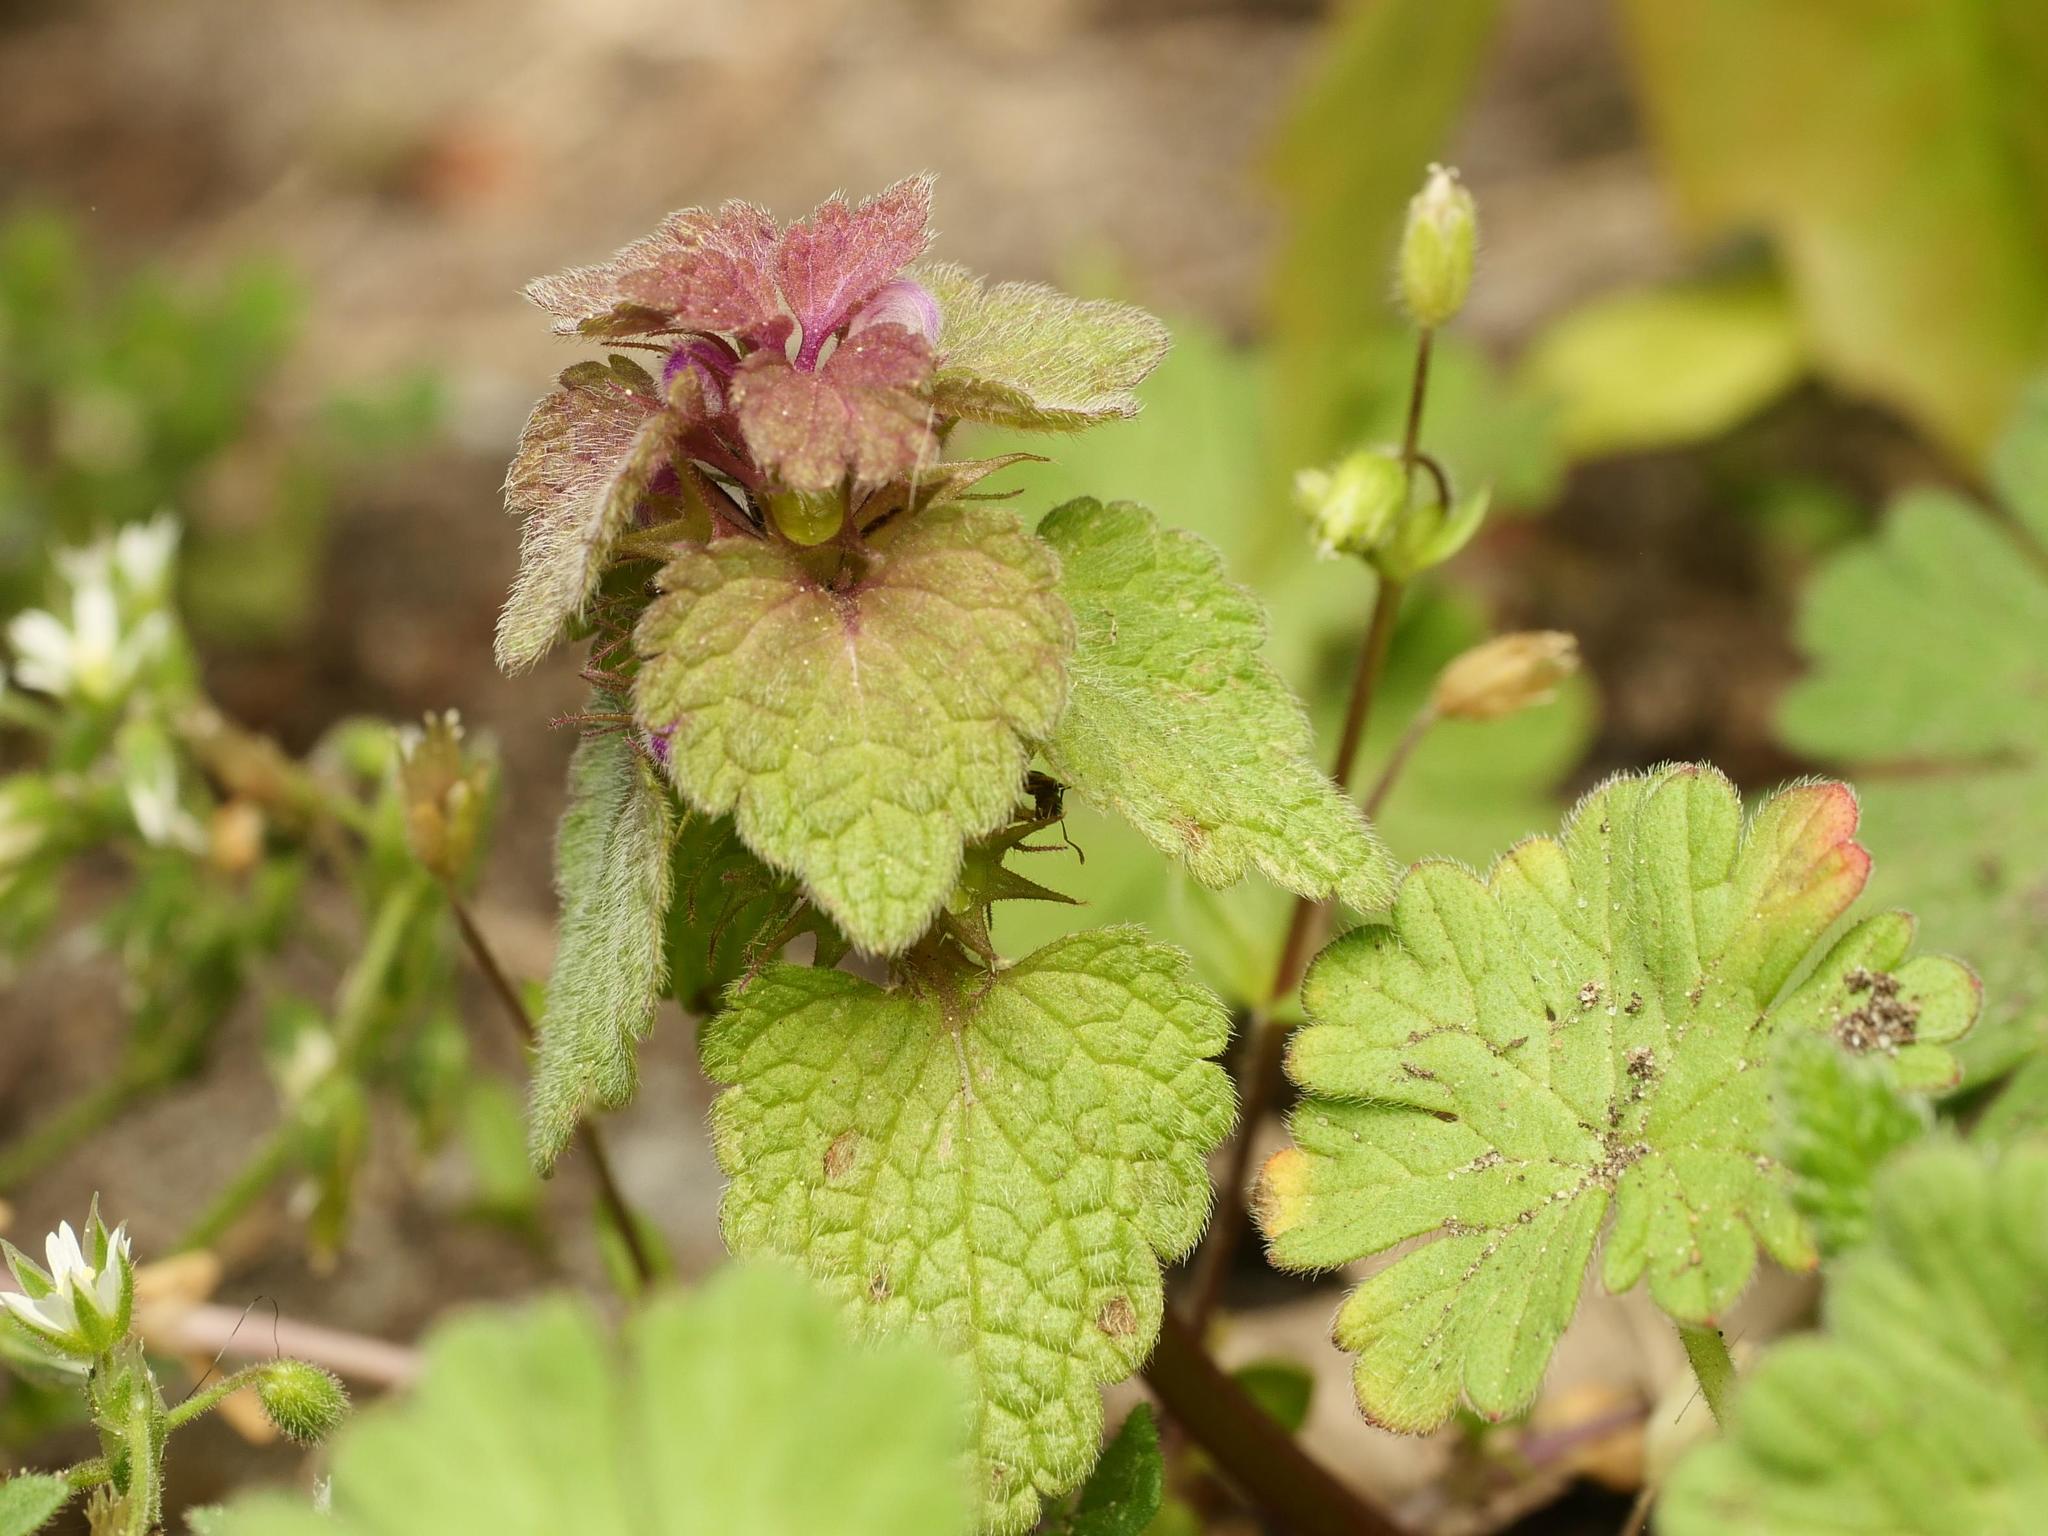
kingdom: Plantae
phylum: Tracheophyta
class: Magnoliopsida
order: Lamiales
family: Lamiaceae
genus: Lamium
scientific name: Lamium purpureum
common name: Red dead-nettle
